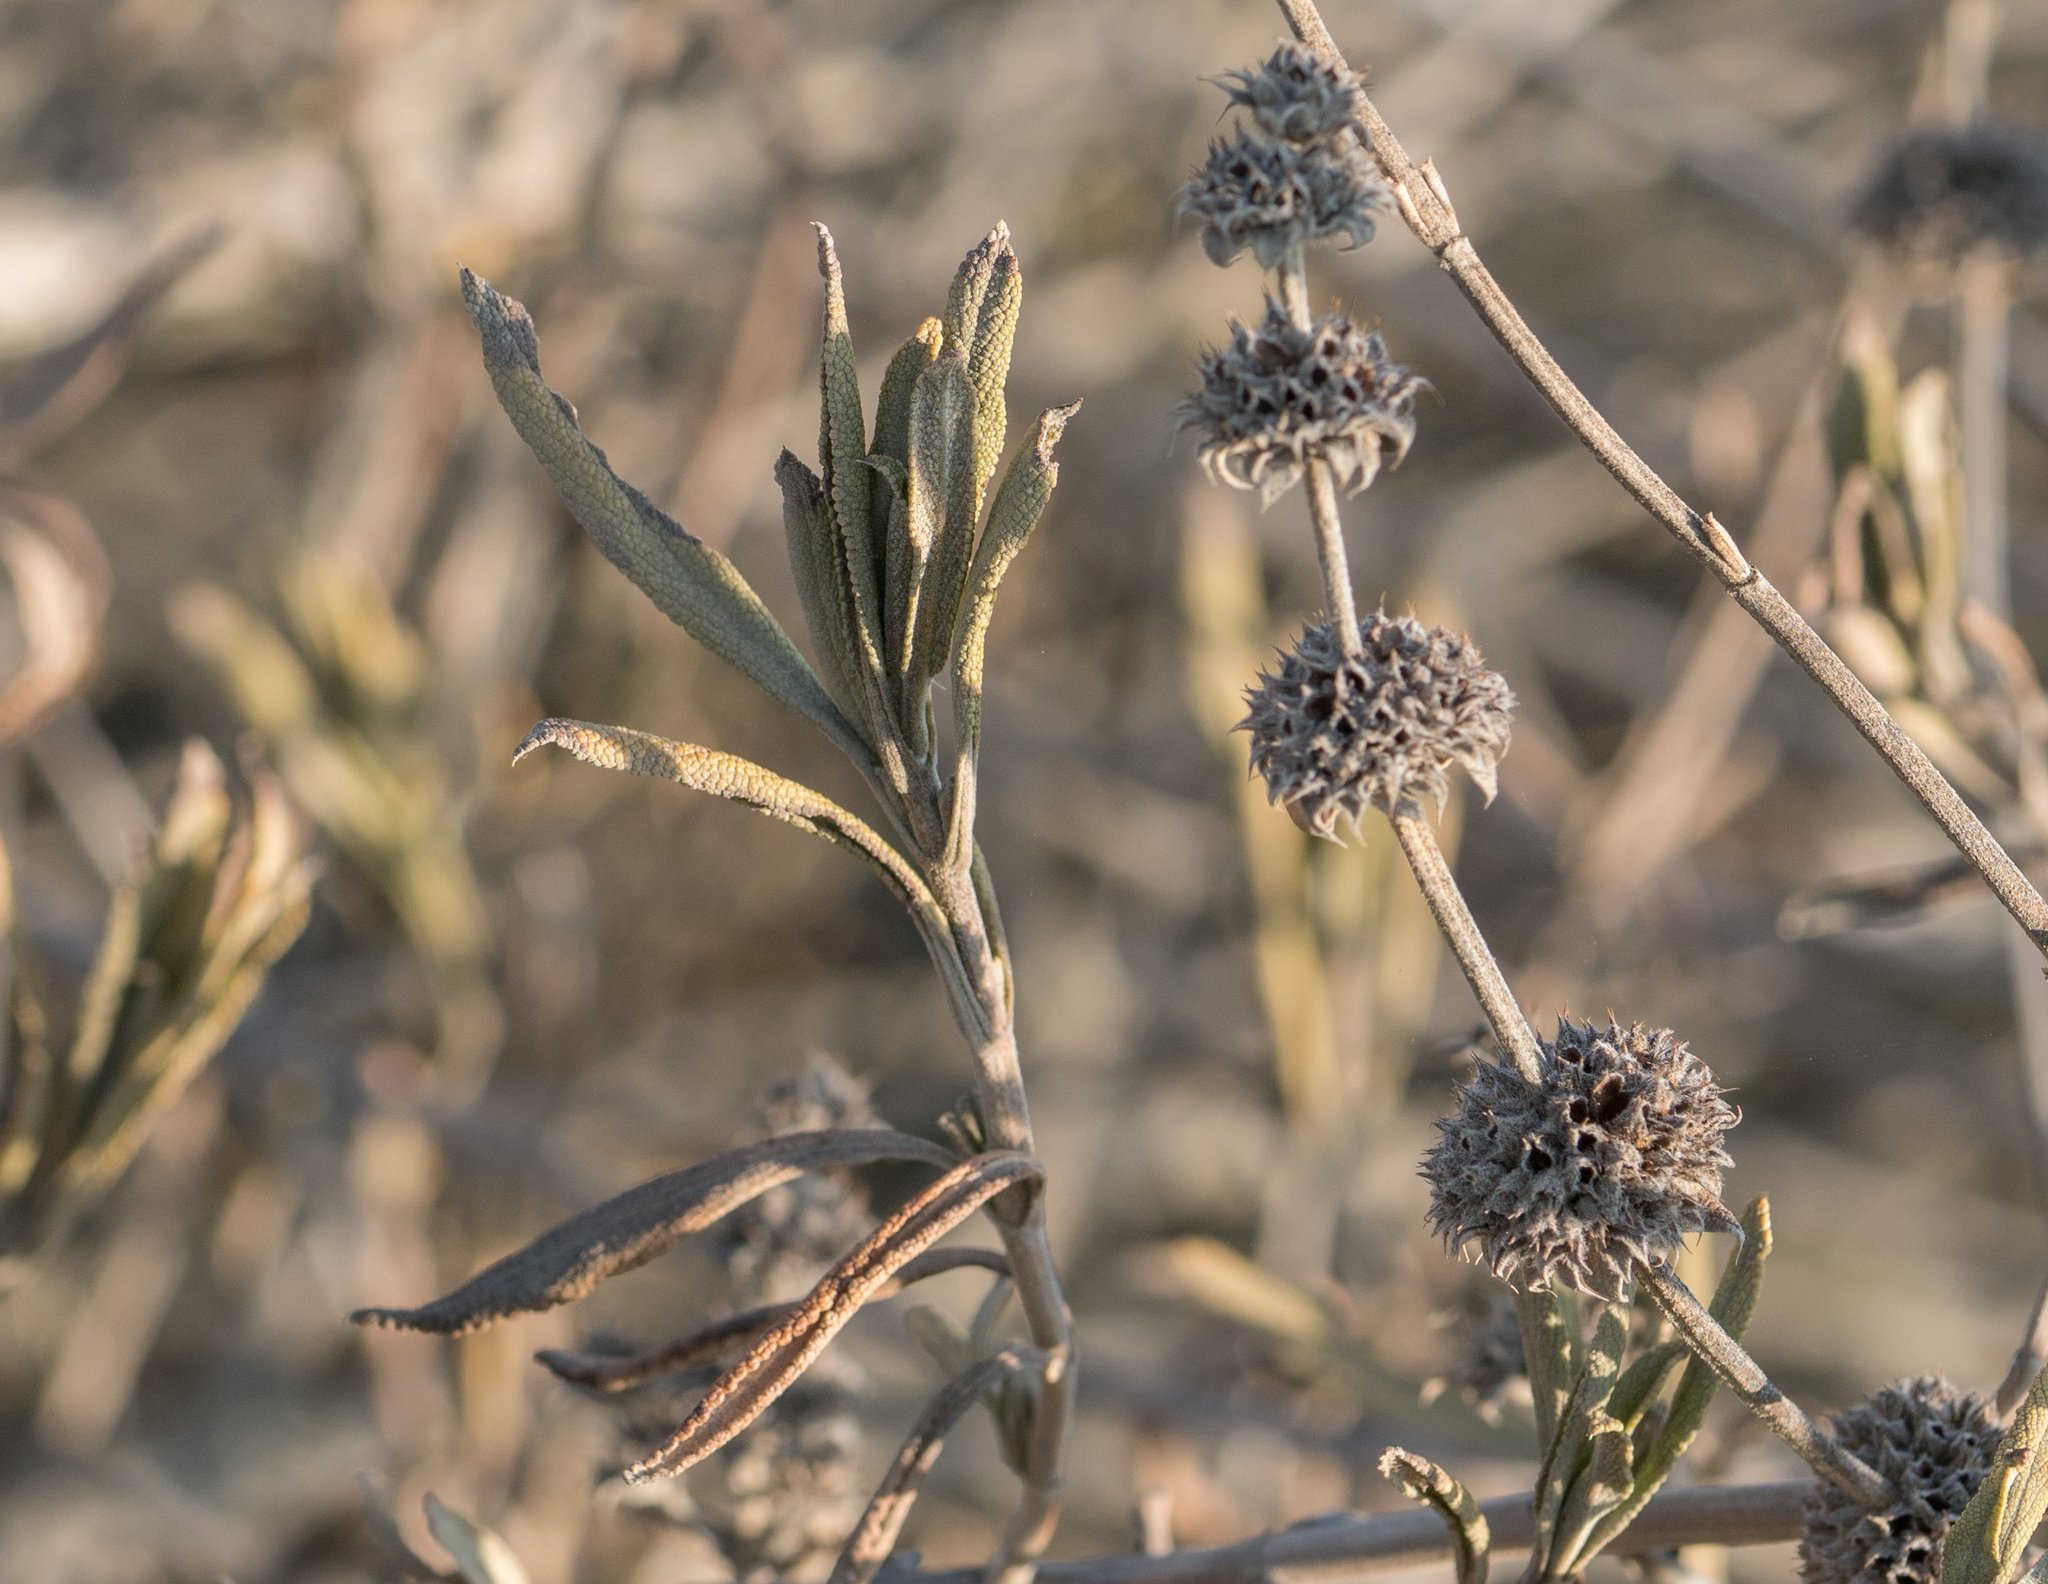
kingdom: Plantae
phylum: Tracheophyta
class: Magnoliopsida
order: Lamiales
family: Lamiaceae
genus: Salvia
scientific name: Salvia mellifera
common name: Black sage
